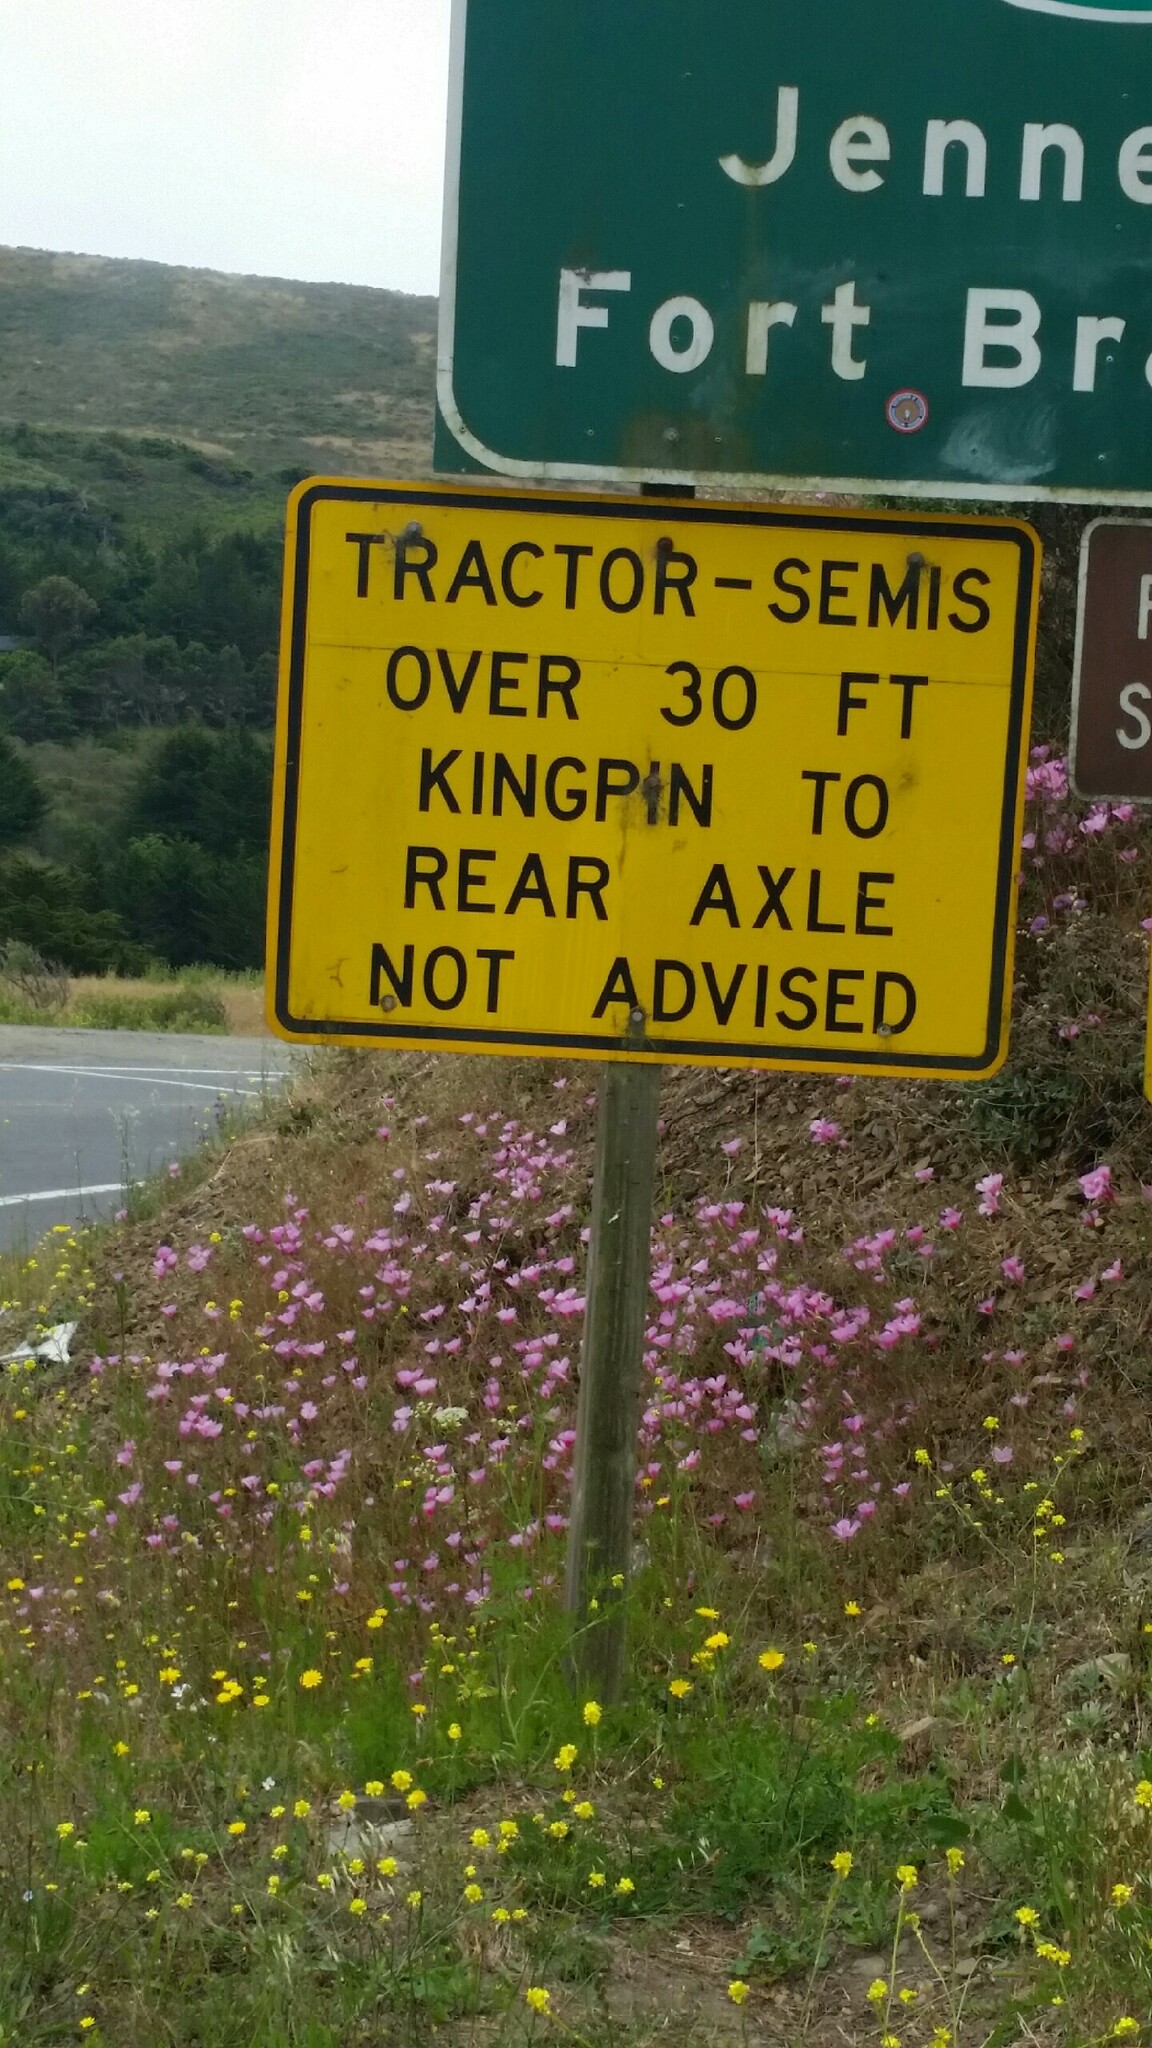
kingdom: Plantae
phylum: Tracheophyta
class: Magnoliopsida
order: Myrtales
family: Onagraceae
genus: Clarkia
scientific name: Clarkia amoena
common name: Godetia
